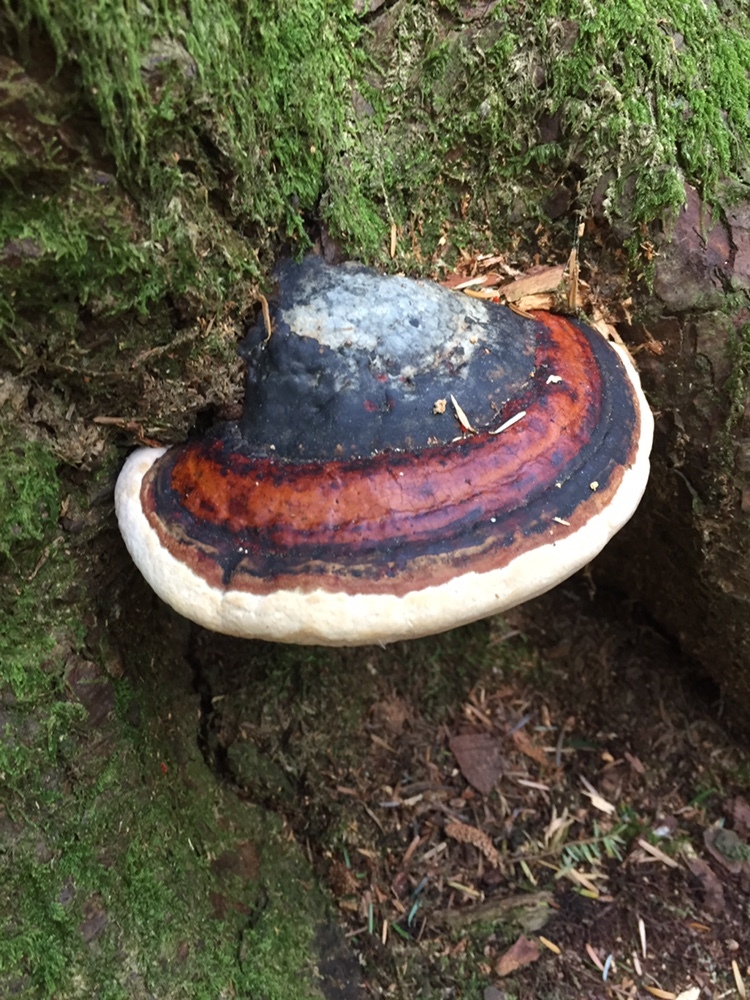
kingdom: Fungi
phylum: Basidiomycota
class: Agaricomycetes
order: Polyporales
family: Fomitopsidaceae
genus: Fomitopsis
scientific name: Fomitopsis mounceae
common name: Northern red belt
